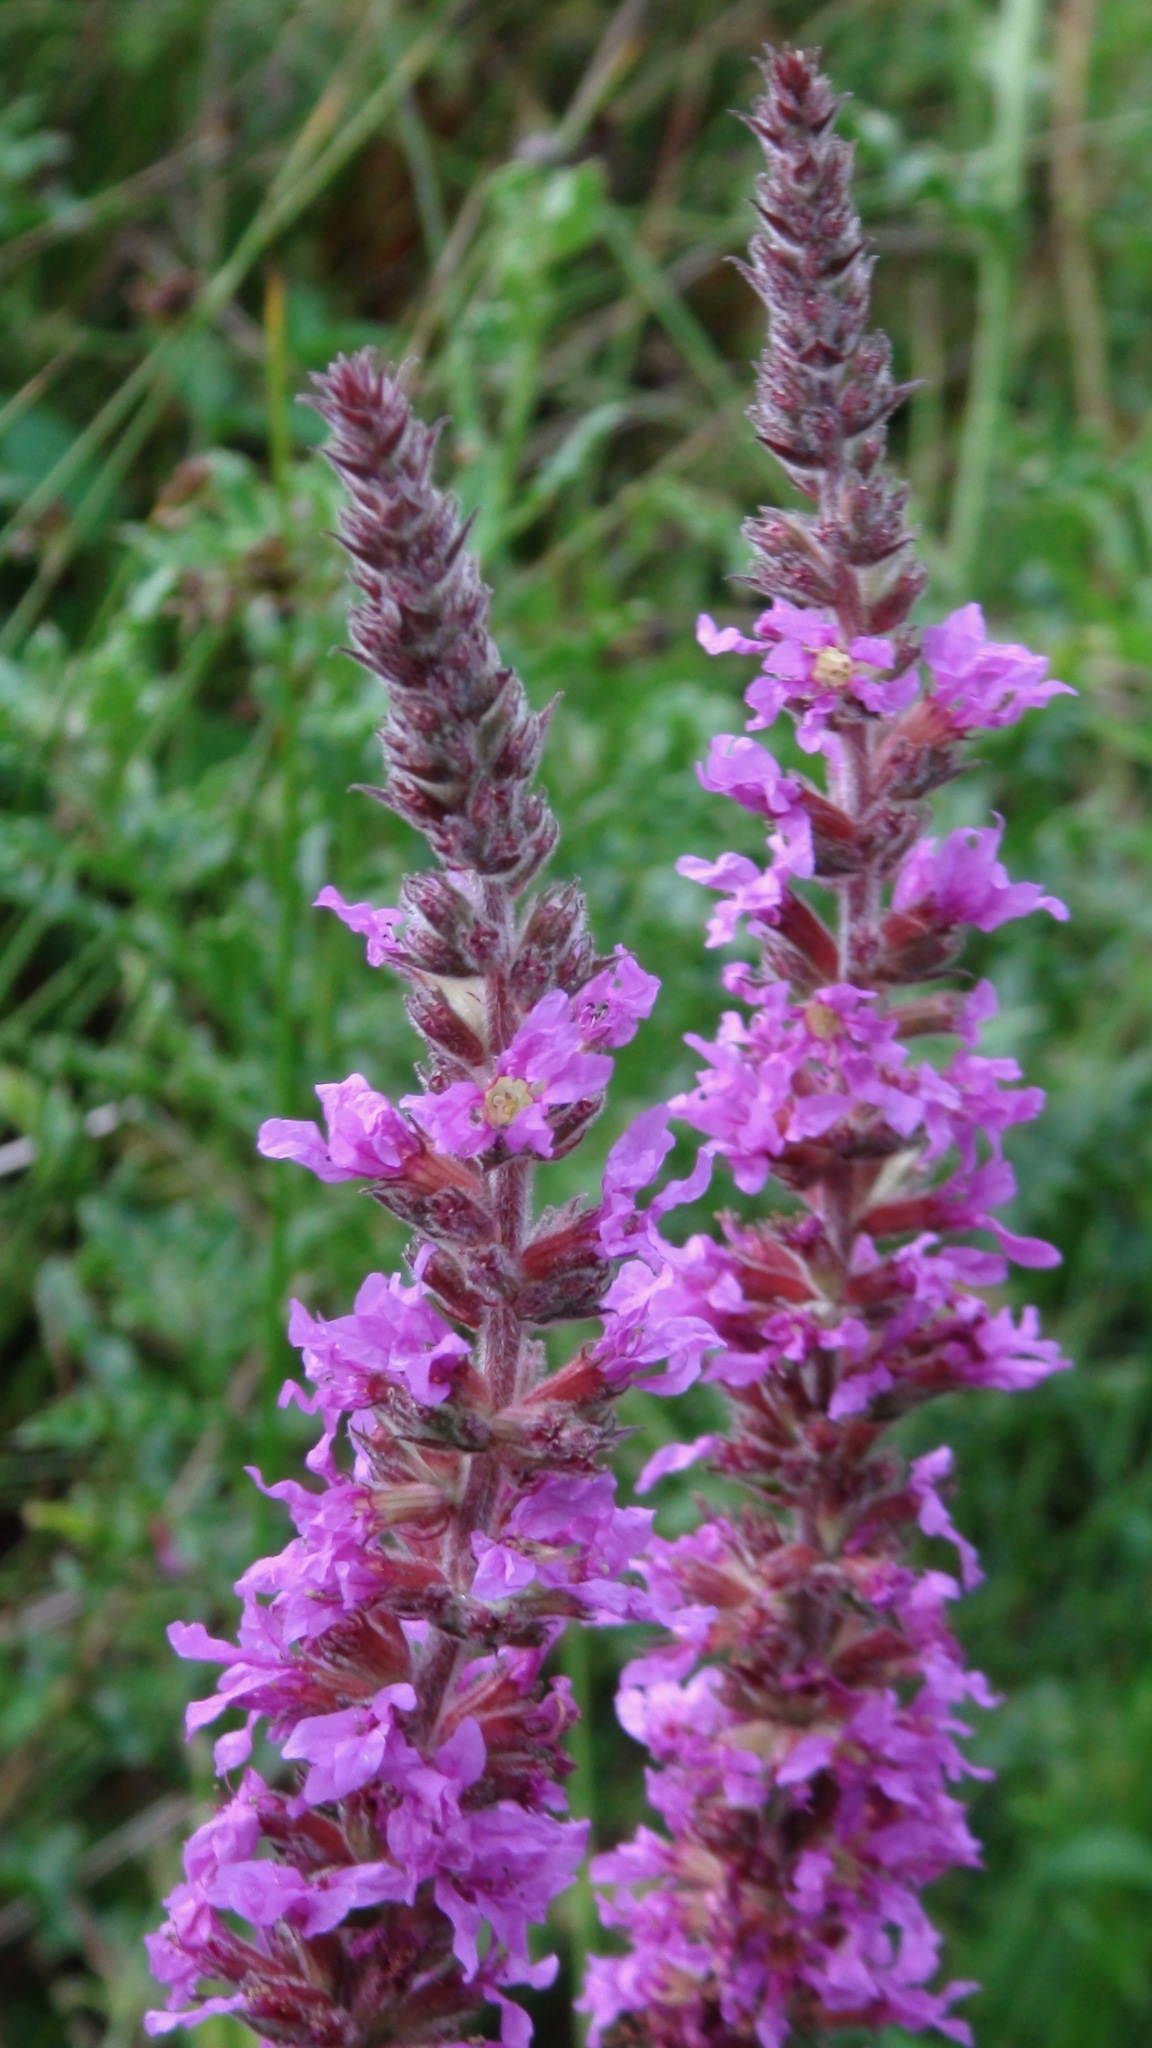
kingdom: Plantae
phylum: Tracheophyta
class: Magnoliopsida
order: Myrtales
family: Lythraceae
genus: Lythrum
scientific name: Lythrum salicaria
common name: Purple loosestrife
